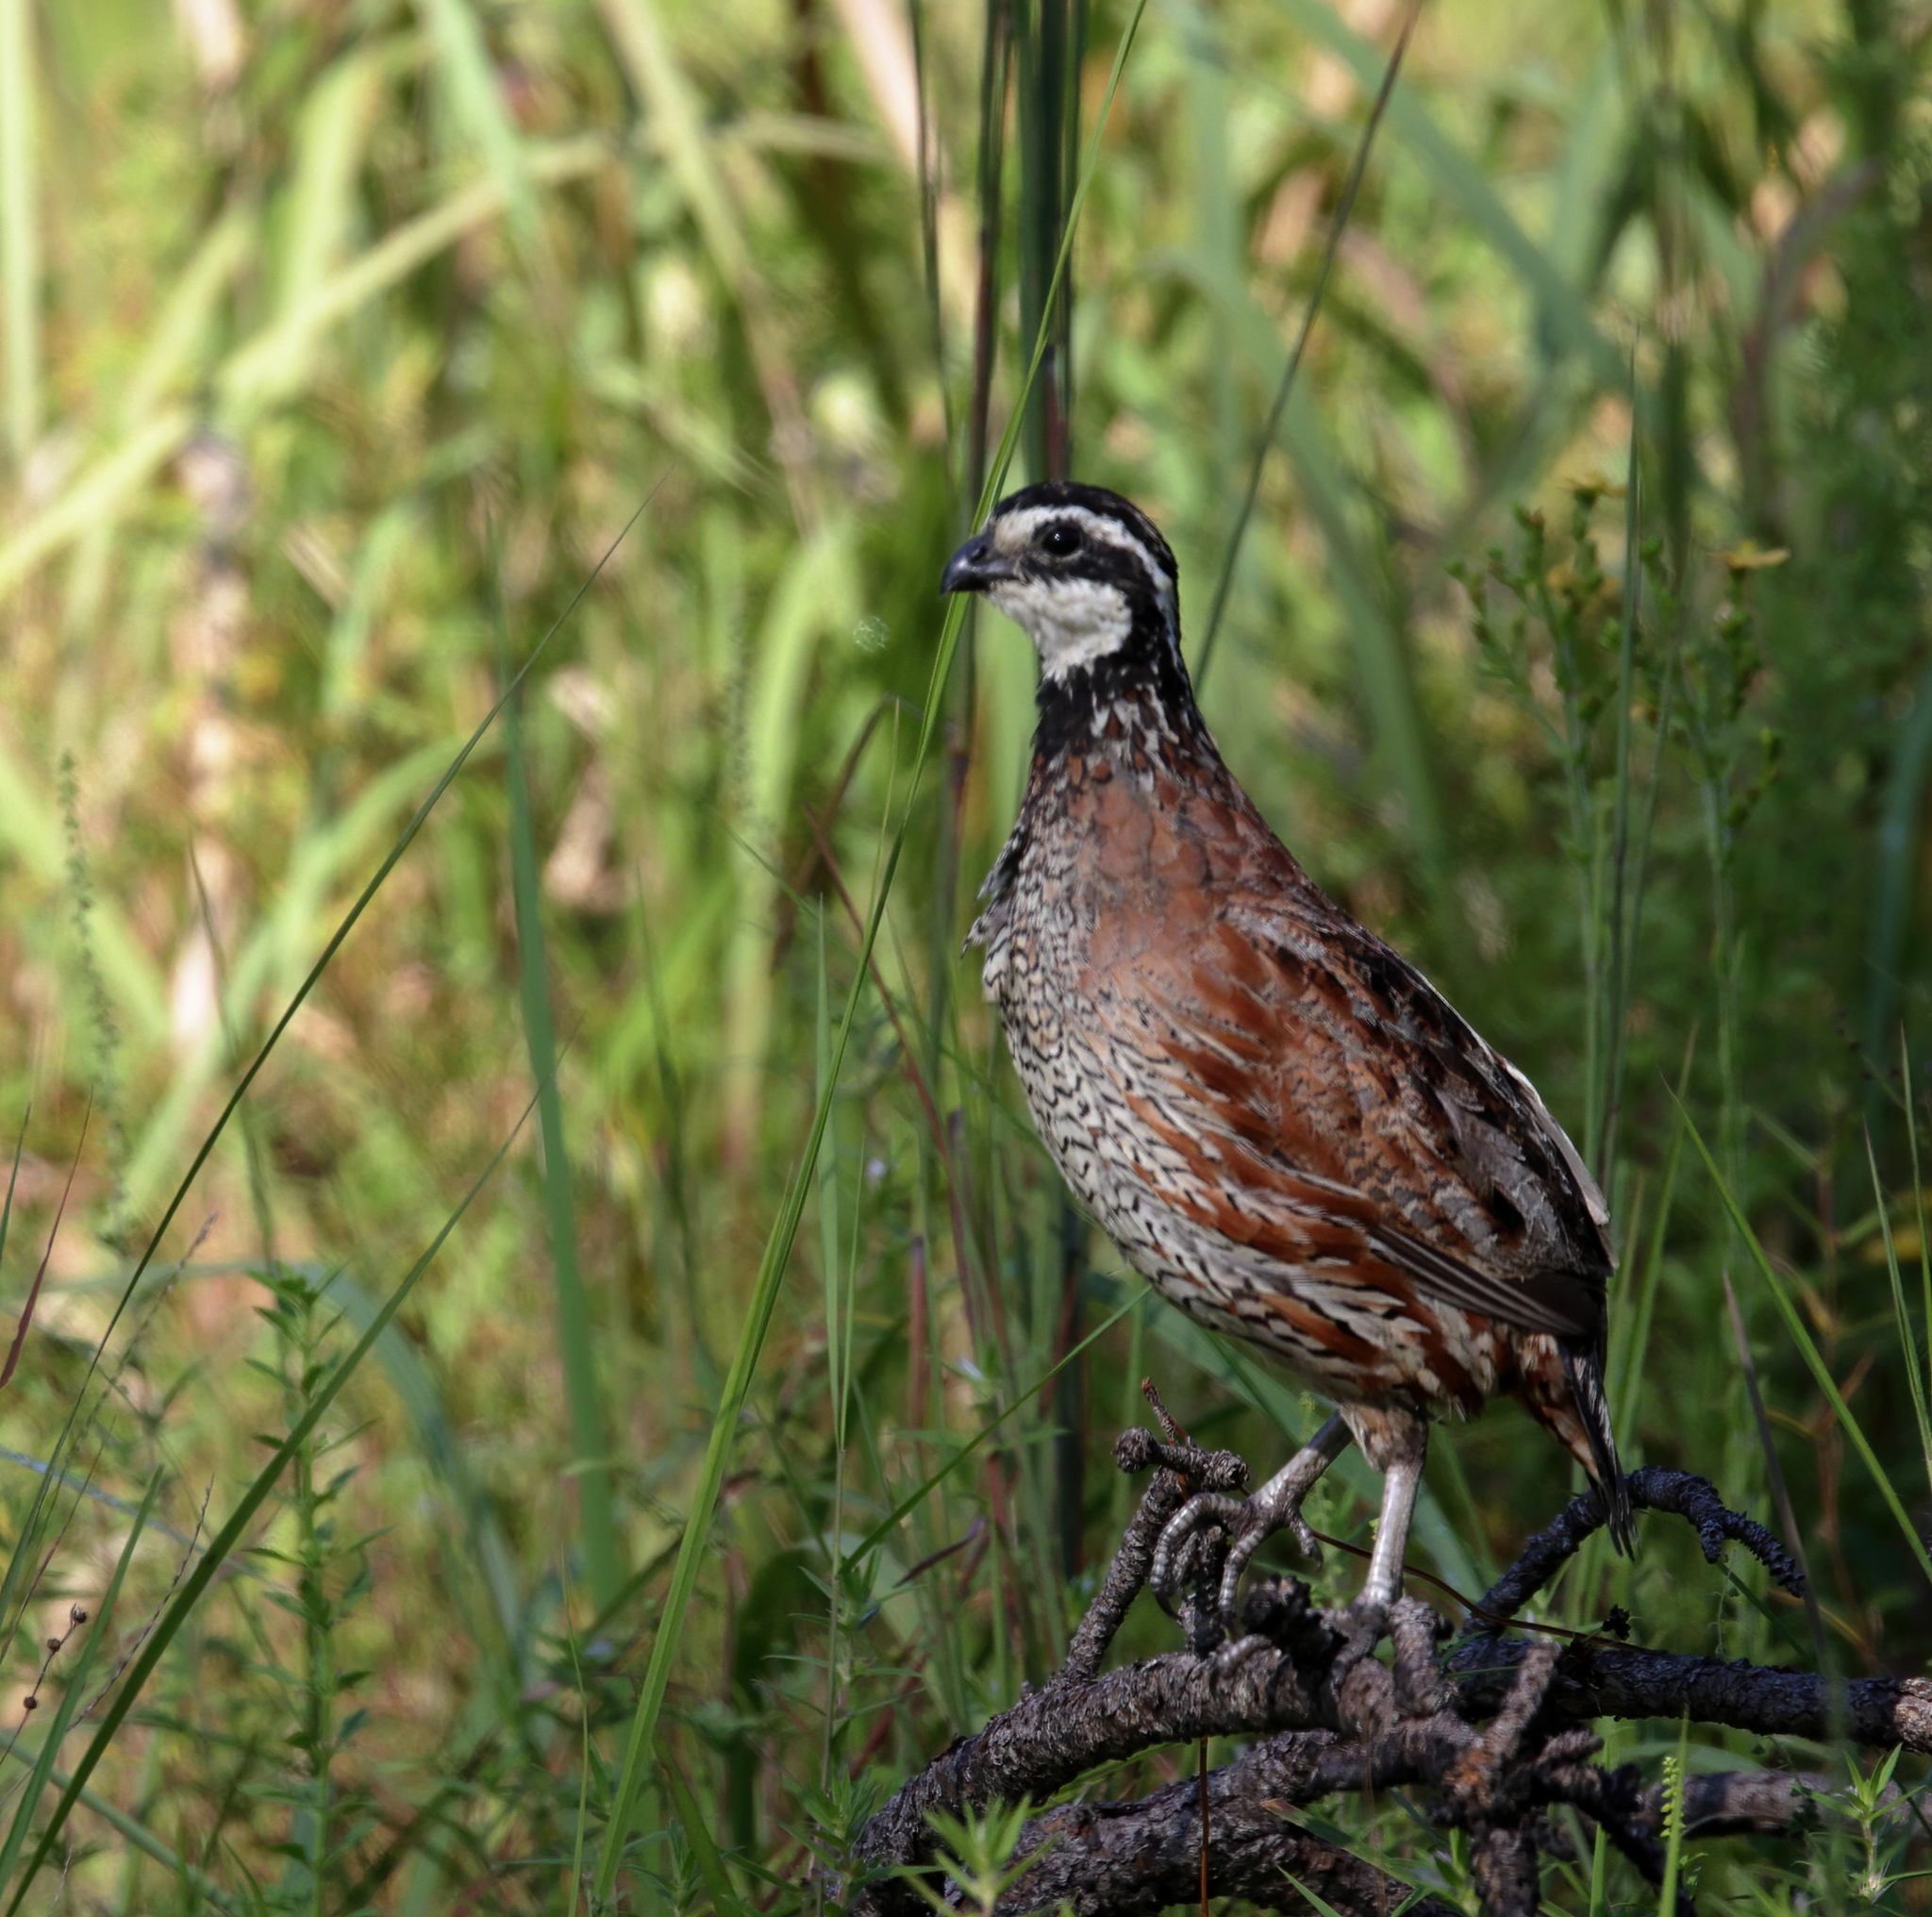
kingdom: Animalia
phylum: Chordata
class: Aves
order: Galliformes
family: Odontophoridae
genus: Colinus
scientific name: Colinus virginianus
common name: Northern bobwhite
